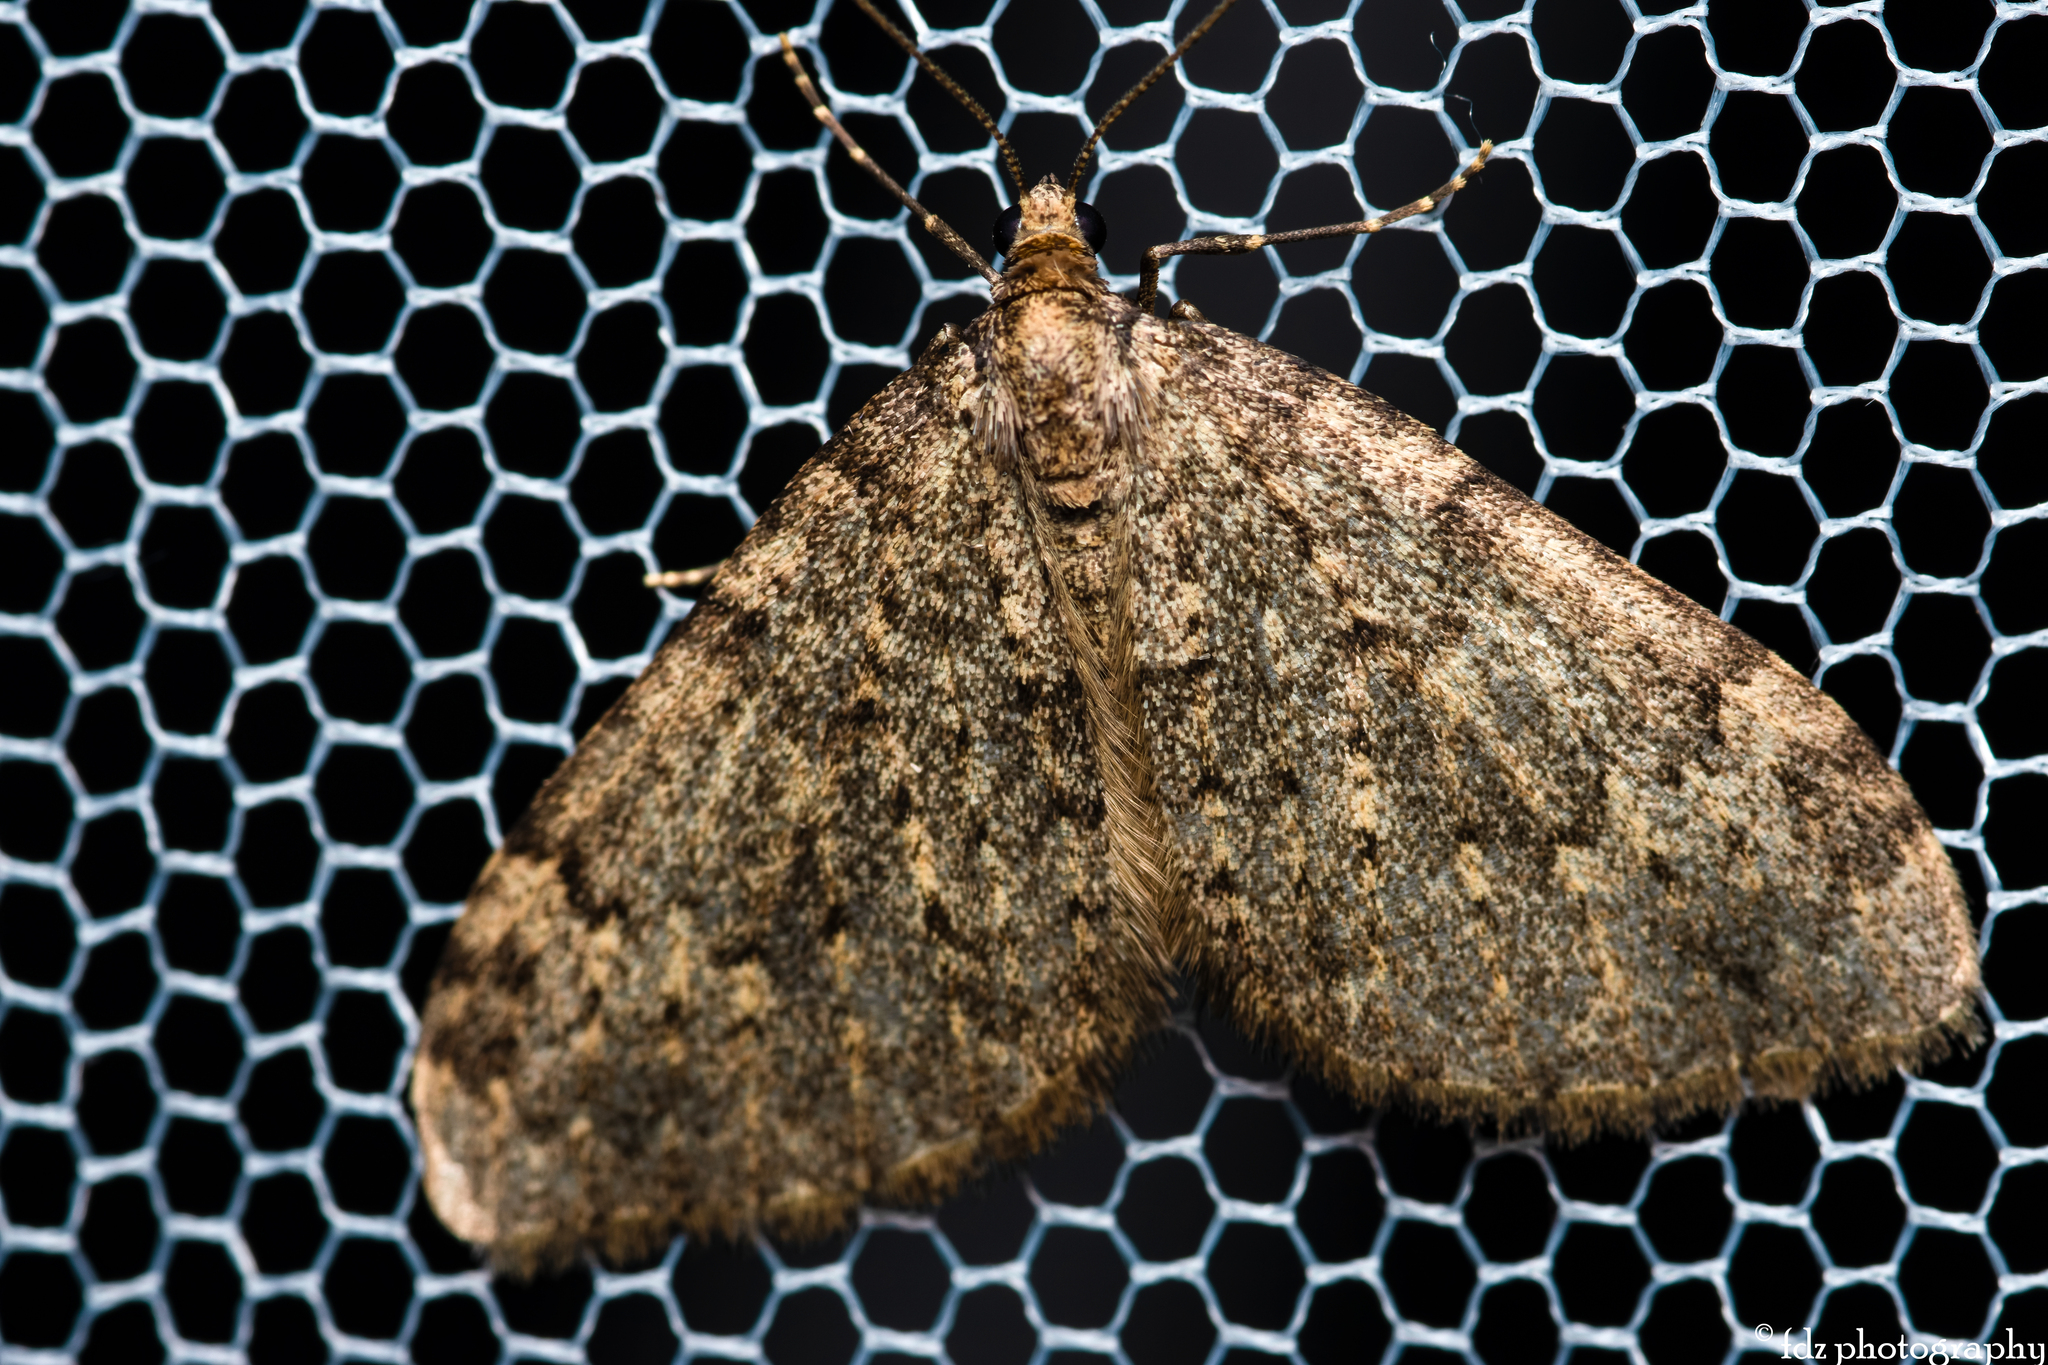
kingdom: Animalia
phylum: Arthropoda
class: Insecta
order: Lepidoptera
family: Geometridae
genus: Nebula
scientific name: Nebula ibericata
